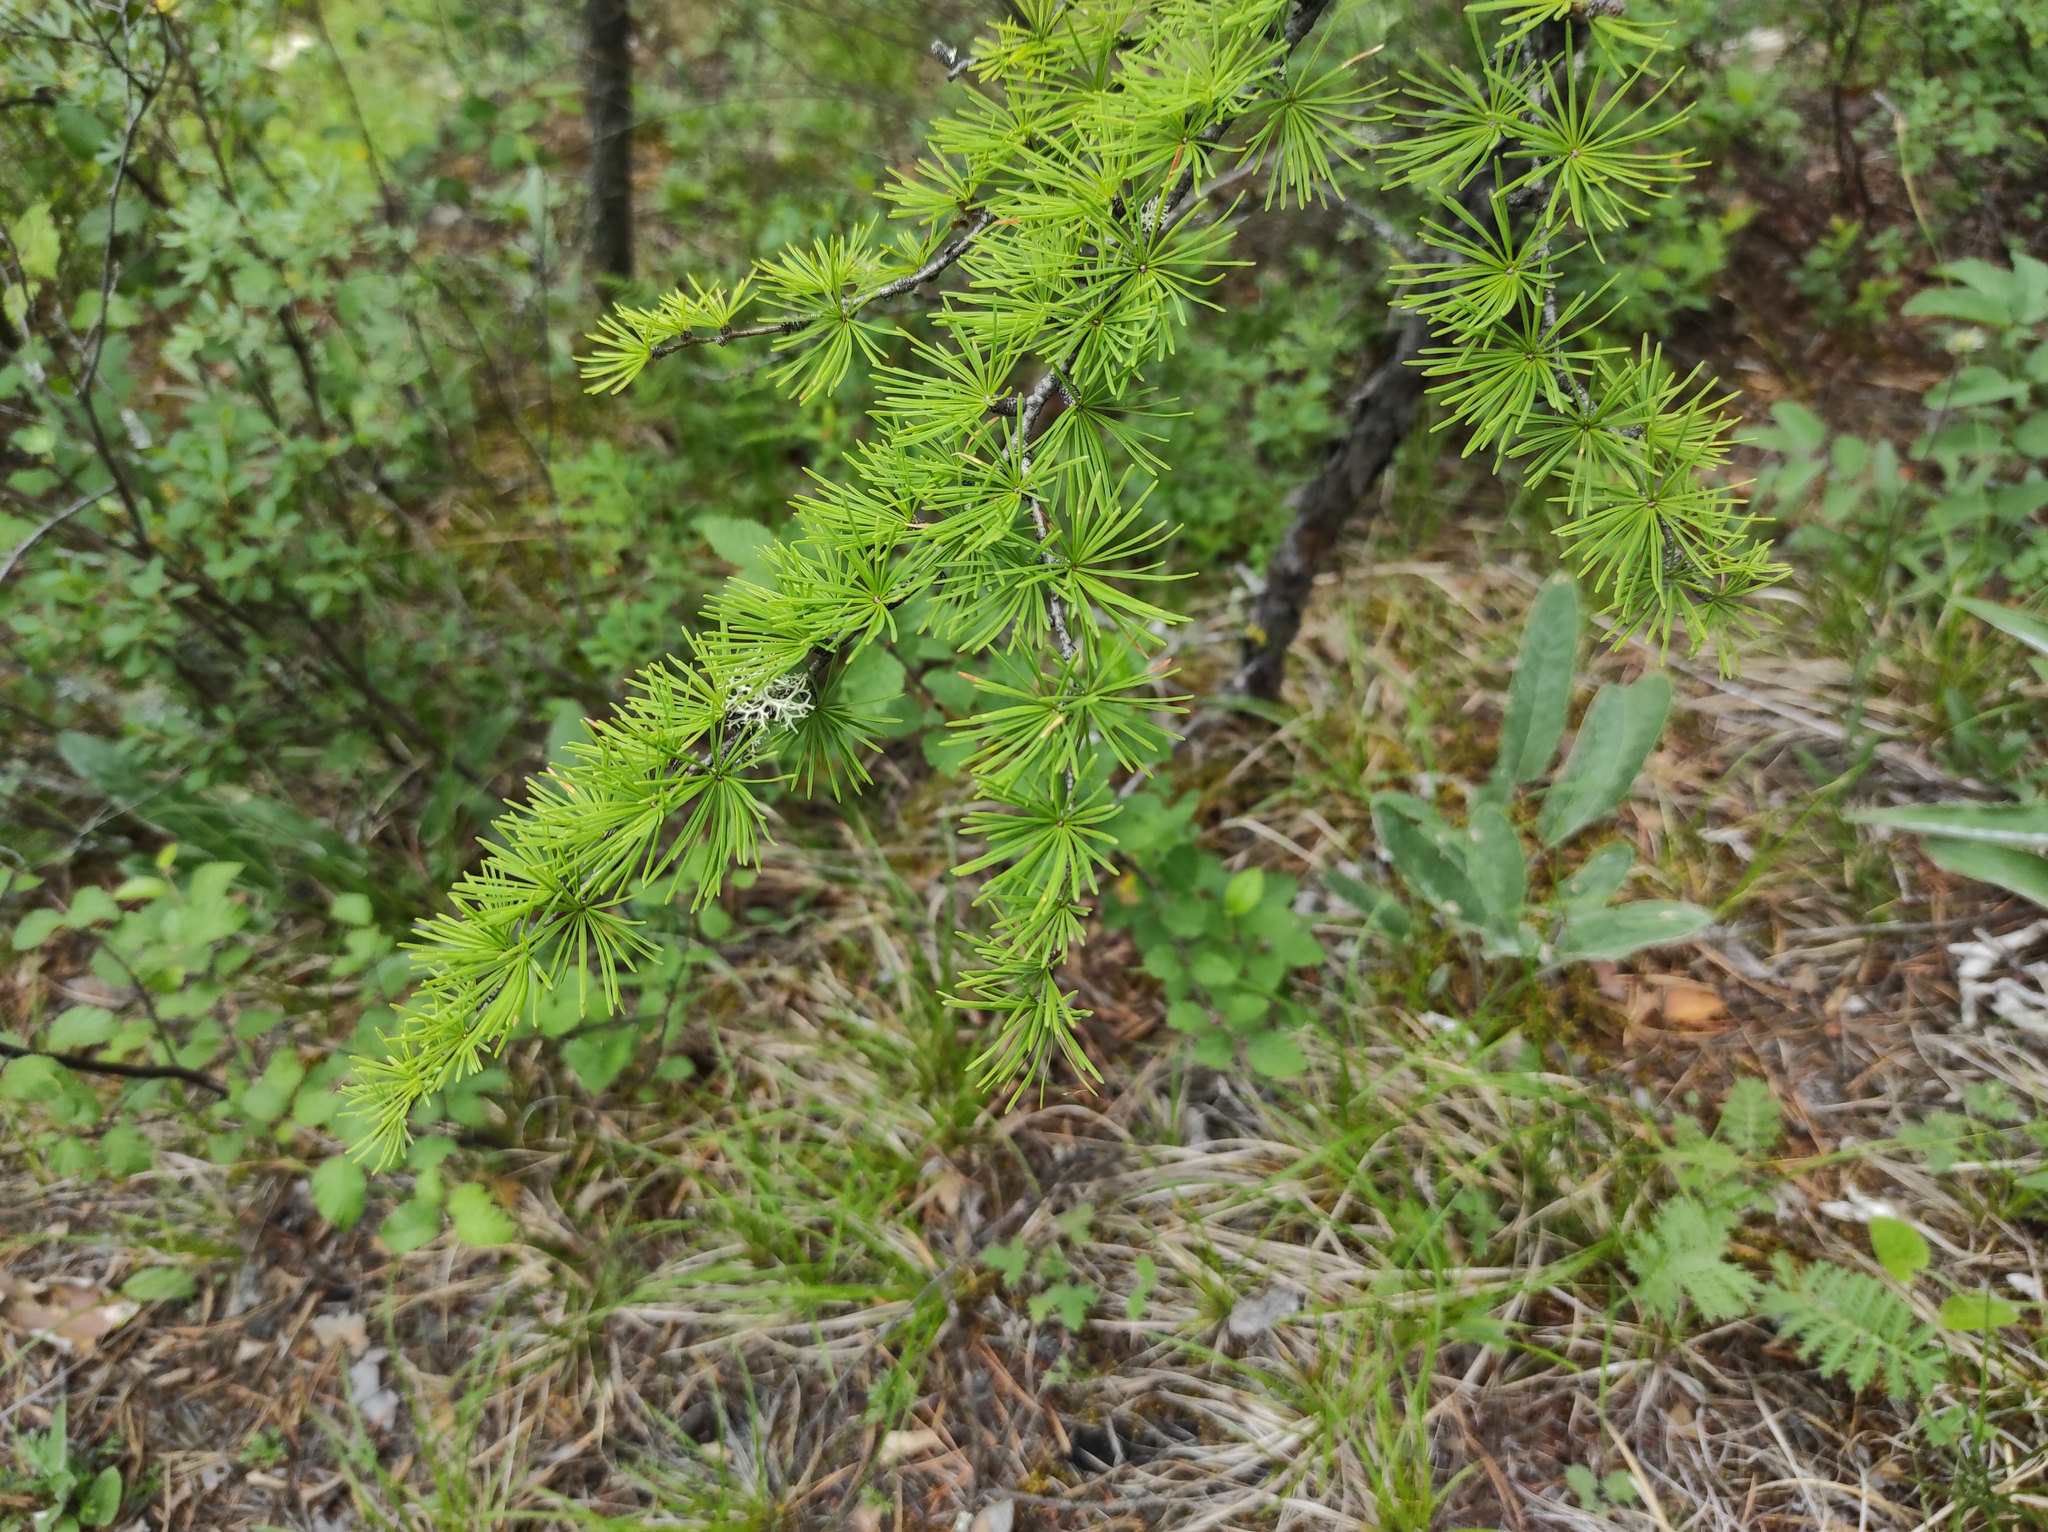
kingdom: Plantae
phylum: Tracheophyta
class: Pinopsida
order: Pinales
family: Pinaceae
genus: Larix
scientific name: Larix gmelinii
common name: Dahurian larch
